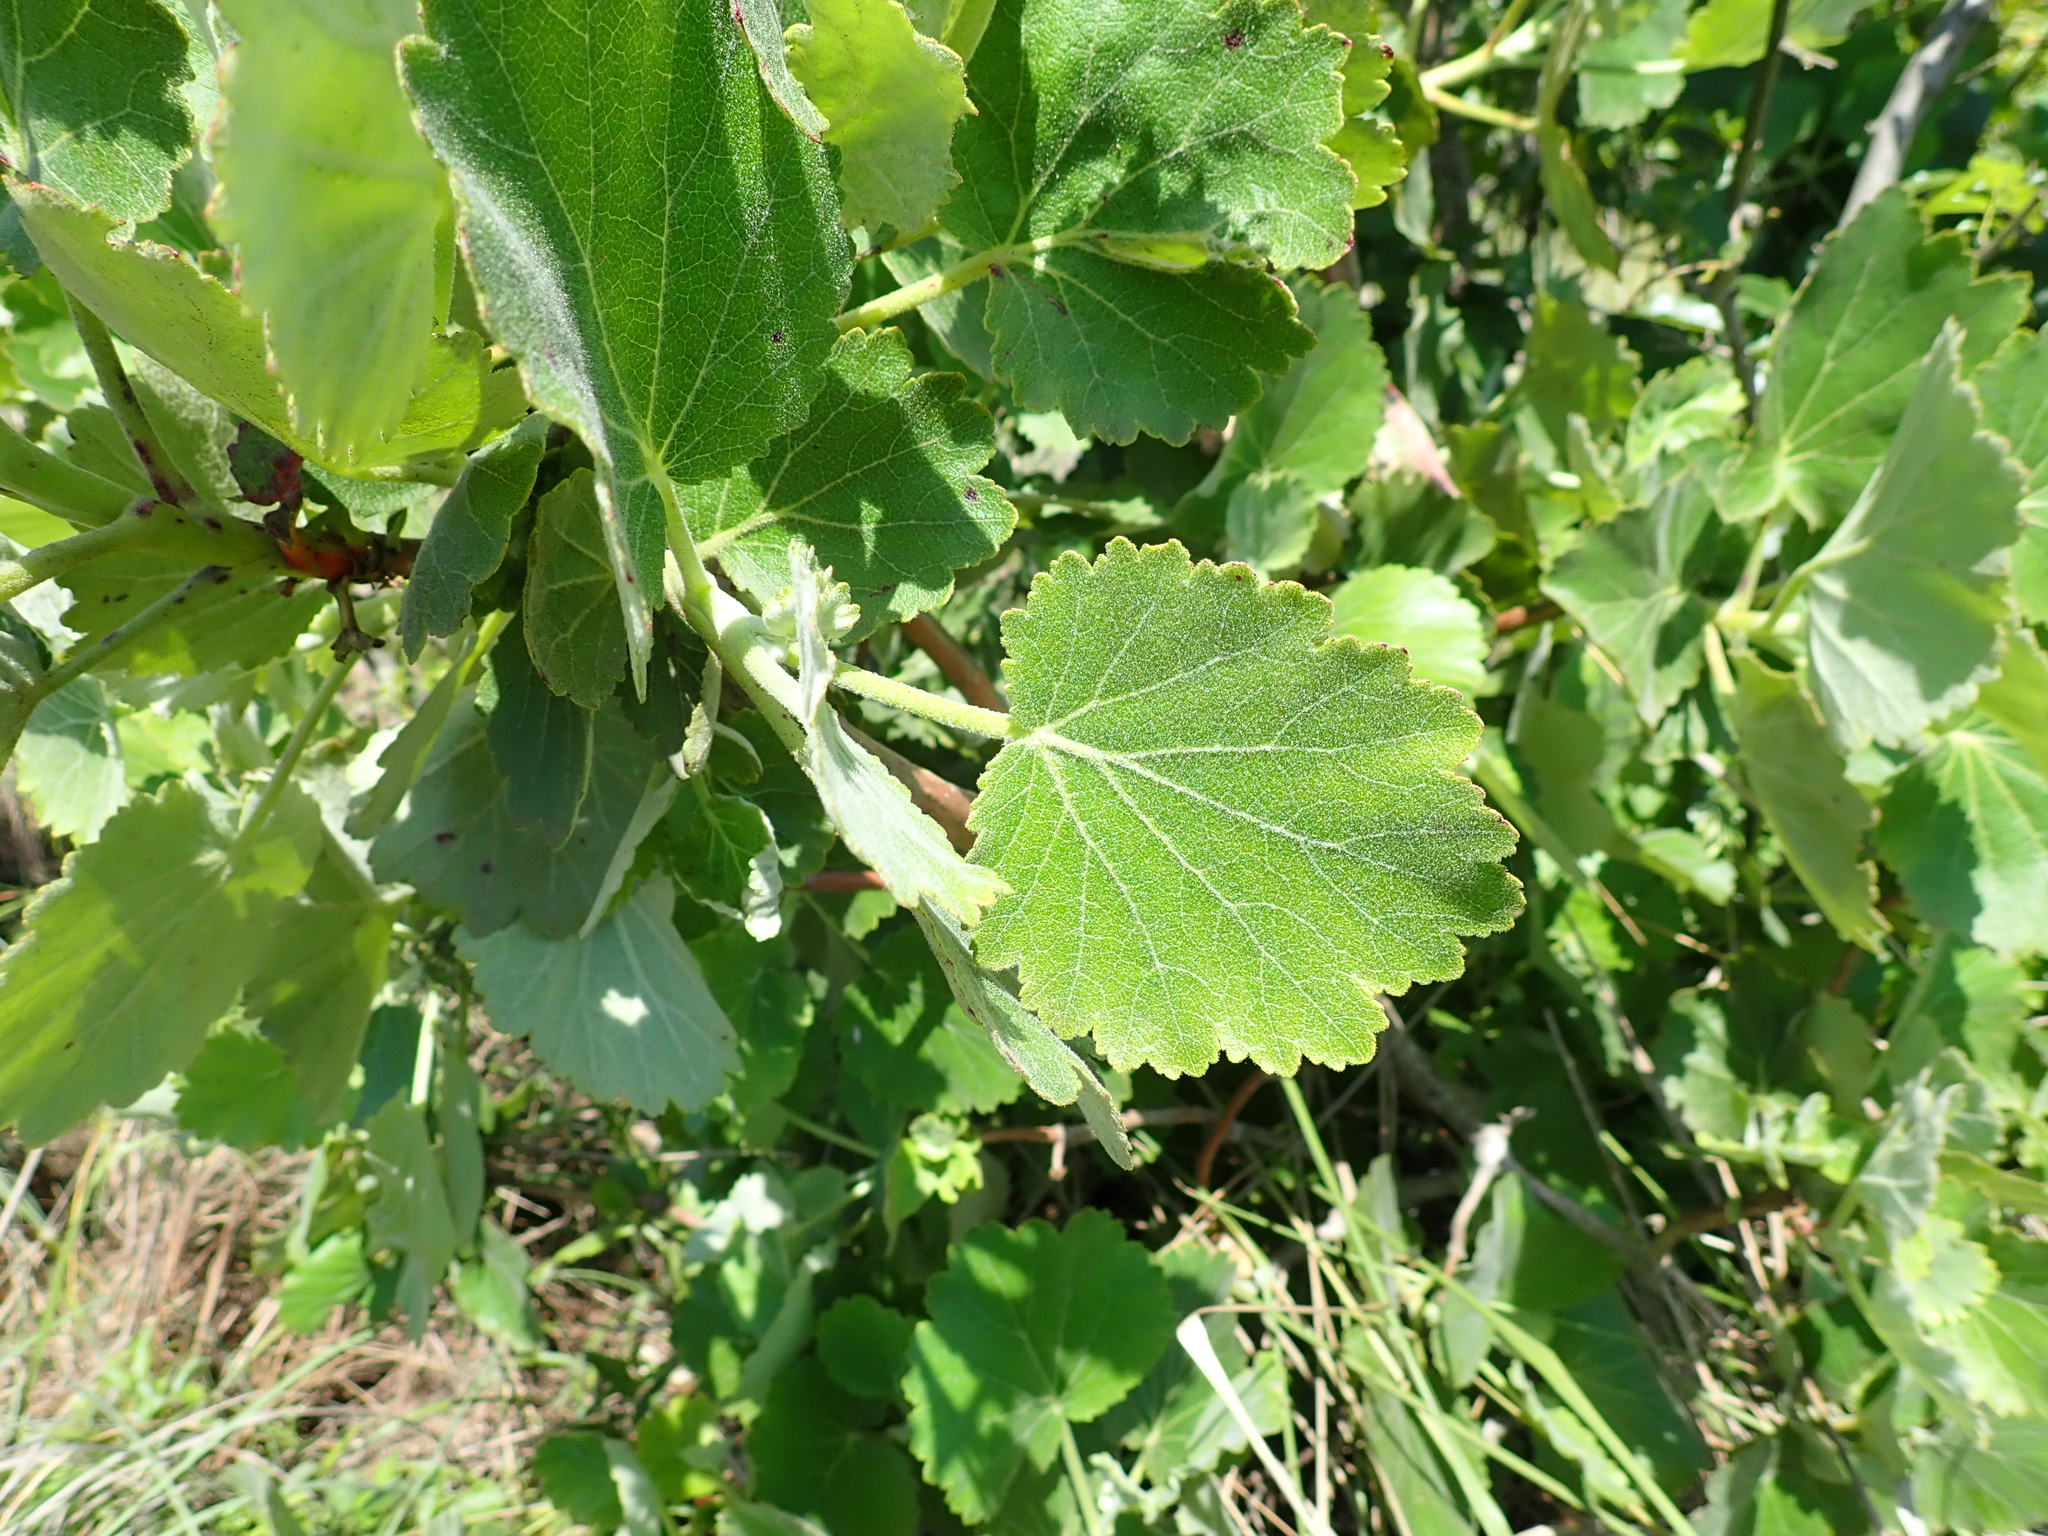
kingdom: Plantae
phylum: Tracheophyta
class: Magnoliopsida
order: Geraniales
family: Francoaceae
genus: Greyia
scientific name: Greyia radlkoferi
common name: Natal bottlebrush
